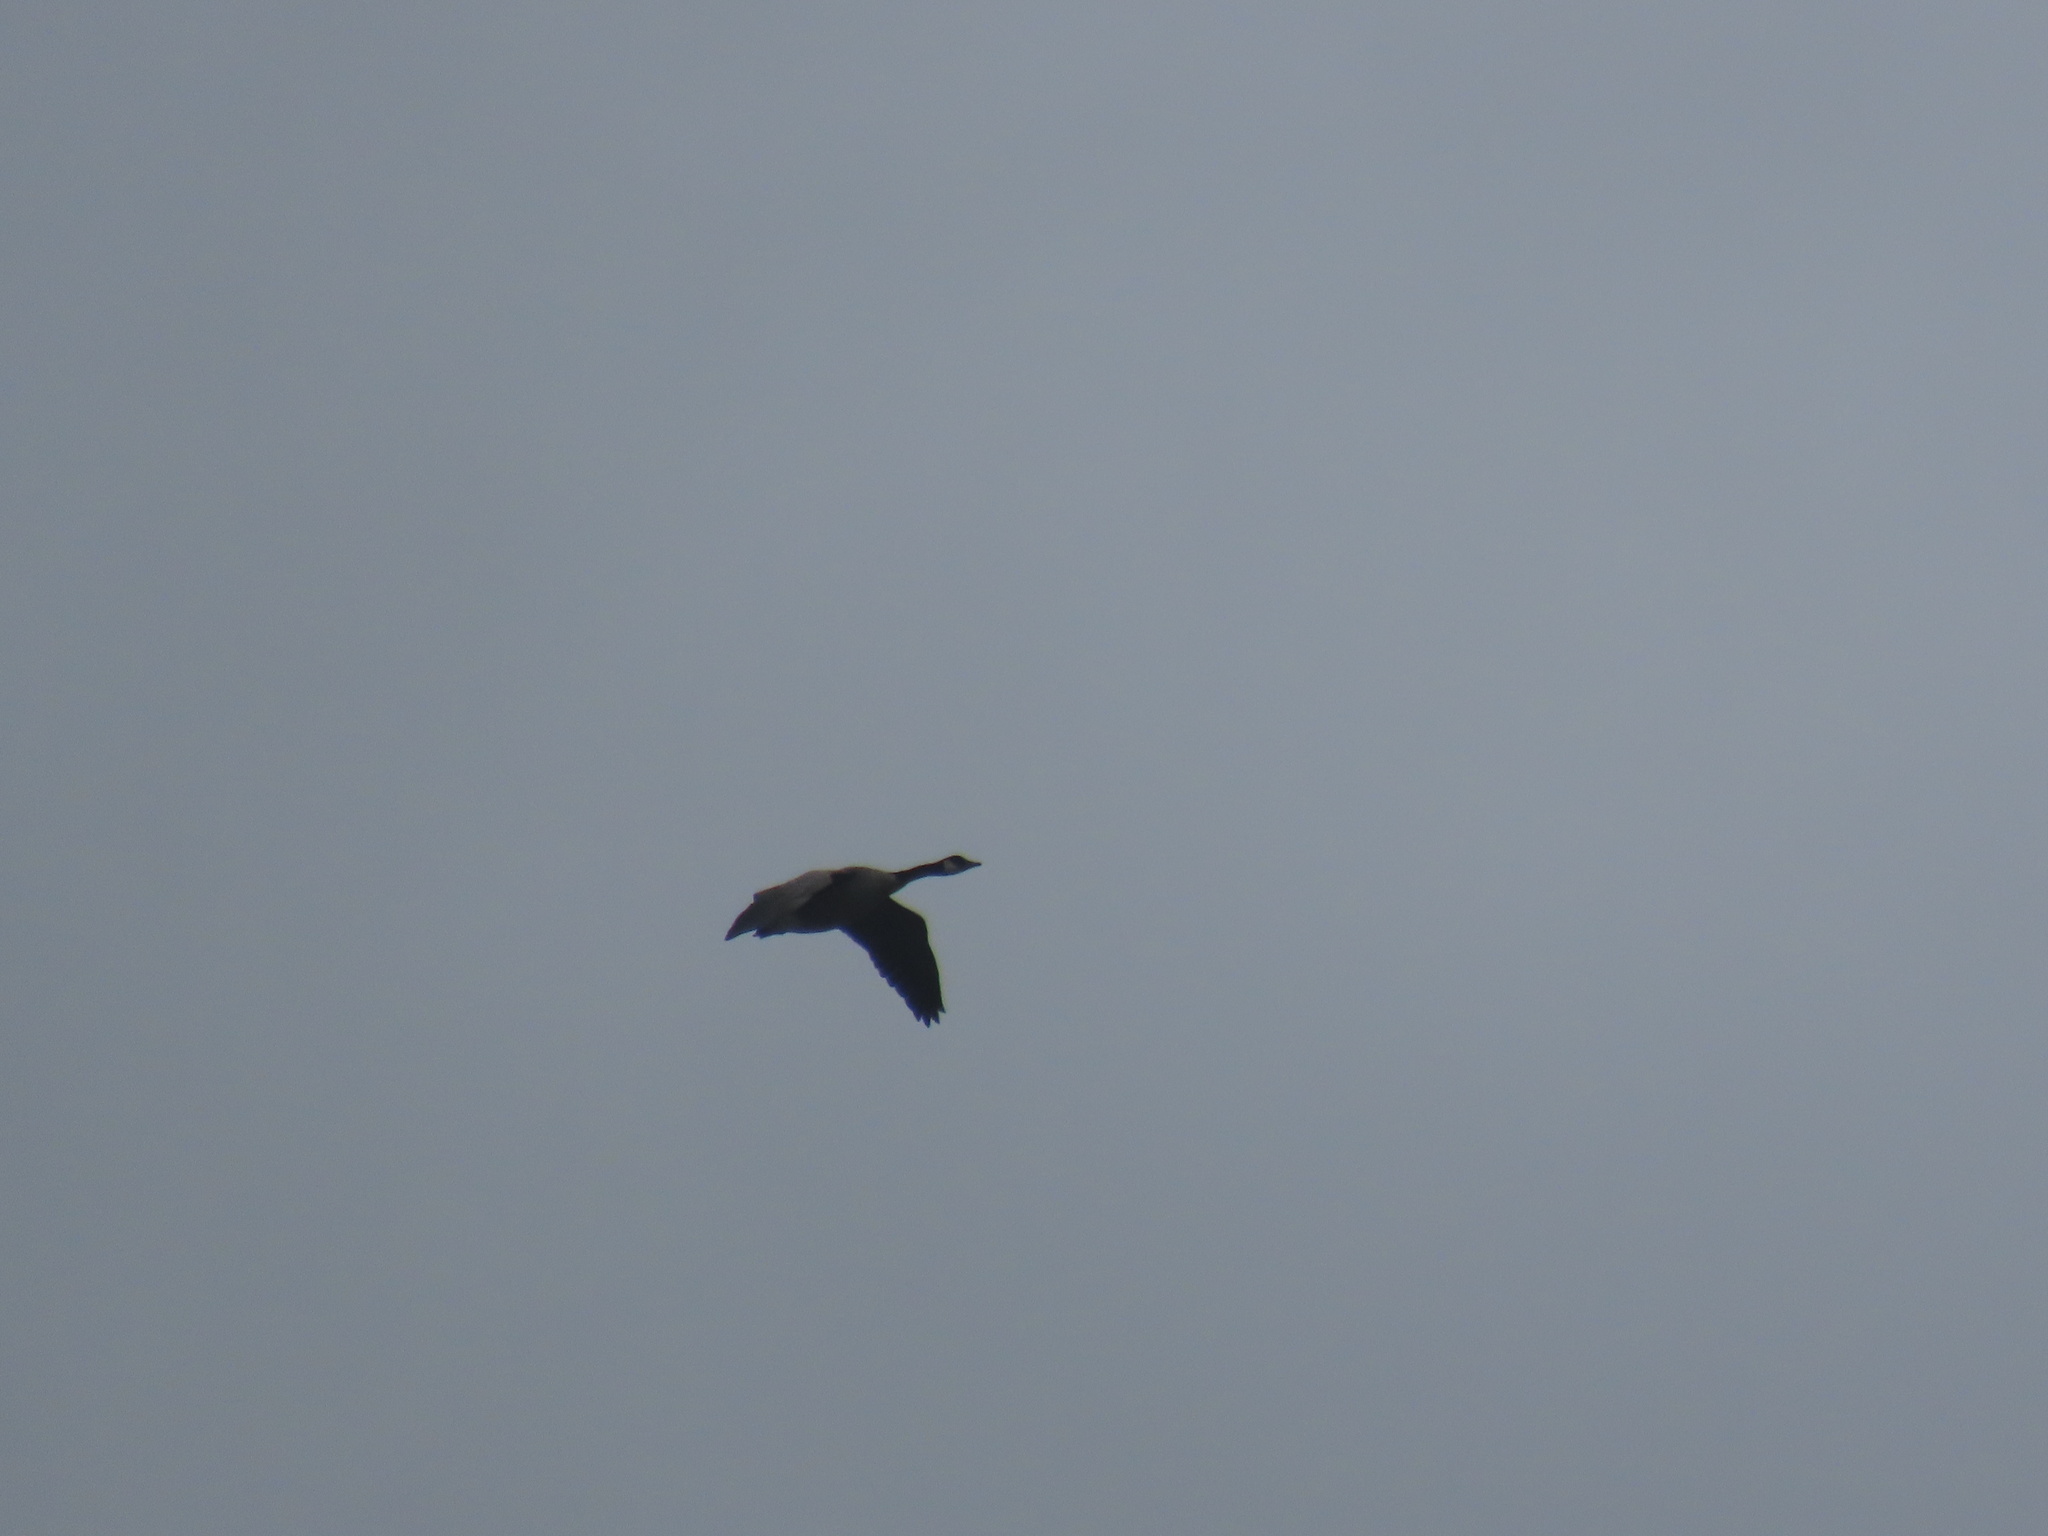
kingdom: Animalia
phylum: Chordata
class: Aves
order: Anseriformes
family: Anatidae
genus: Branta
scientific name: Branta canadensis
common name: Canada goose
